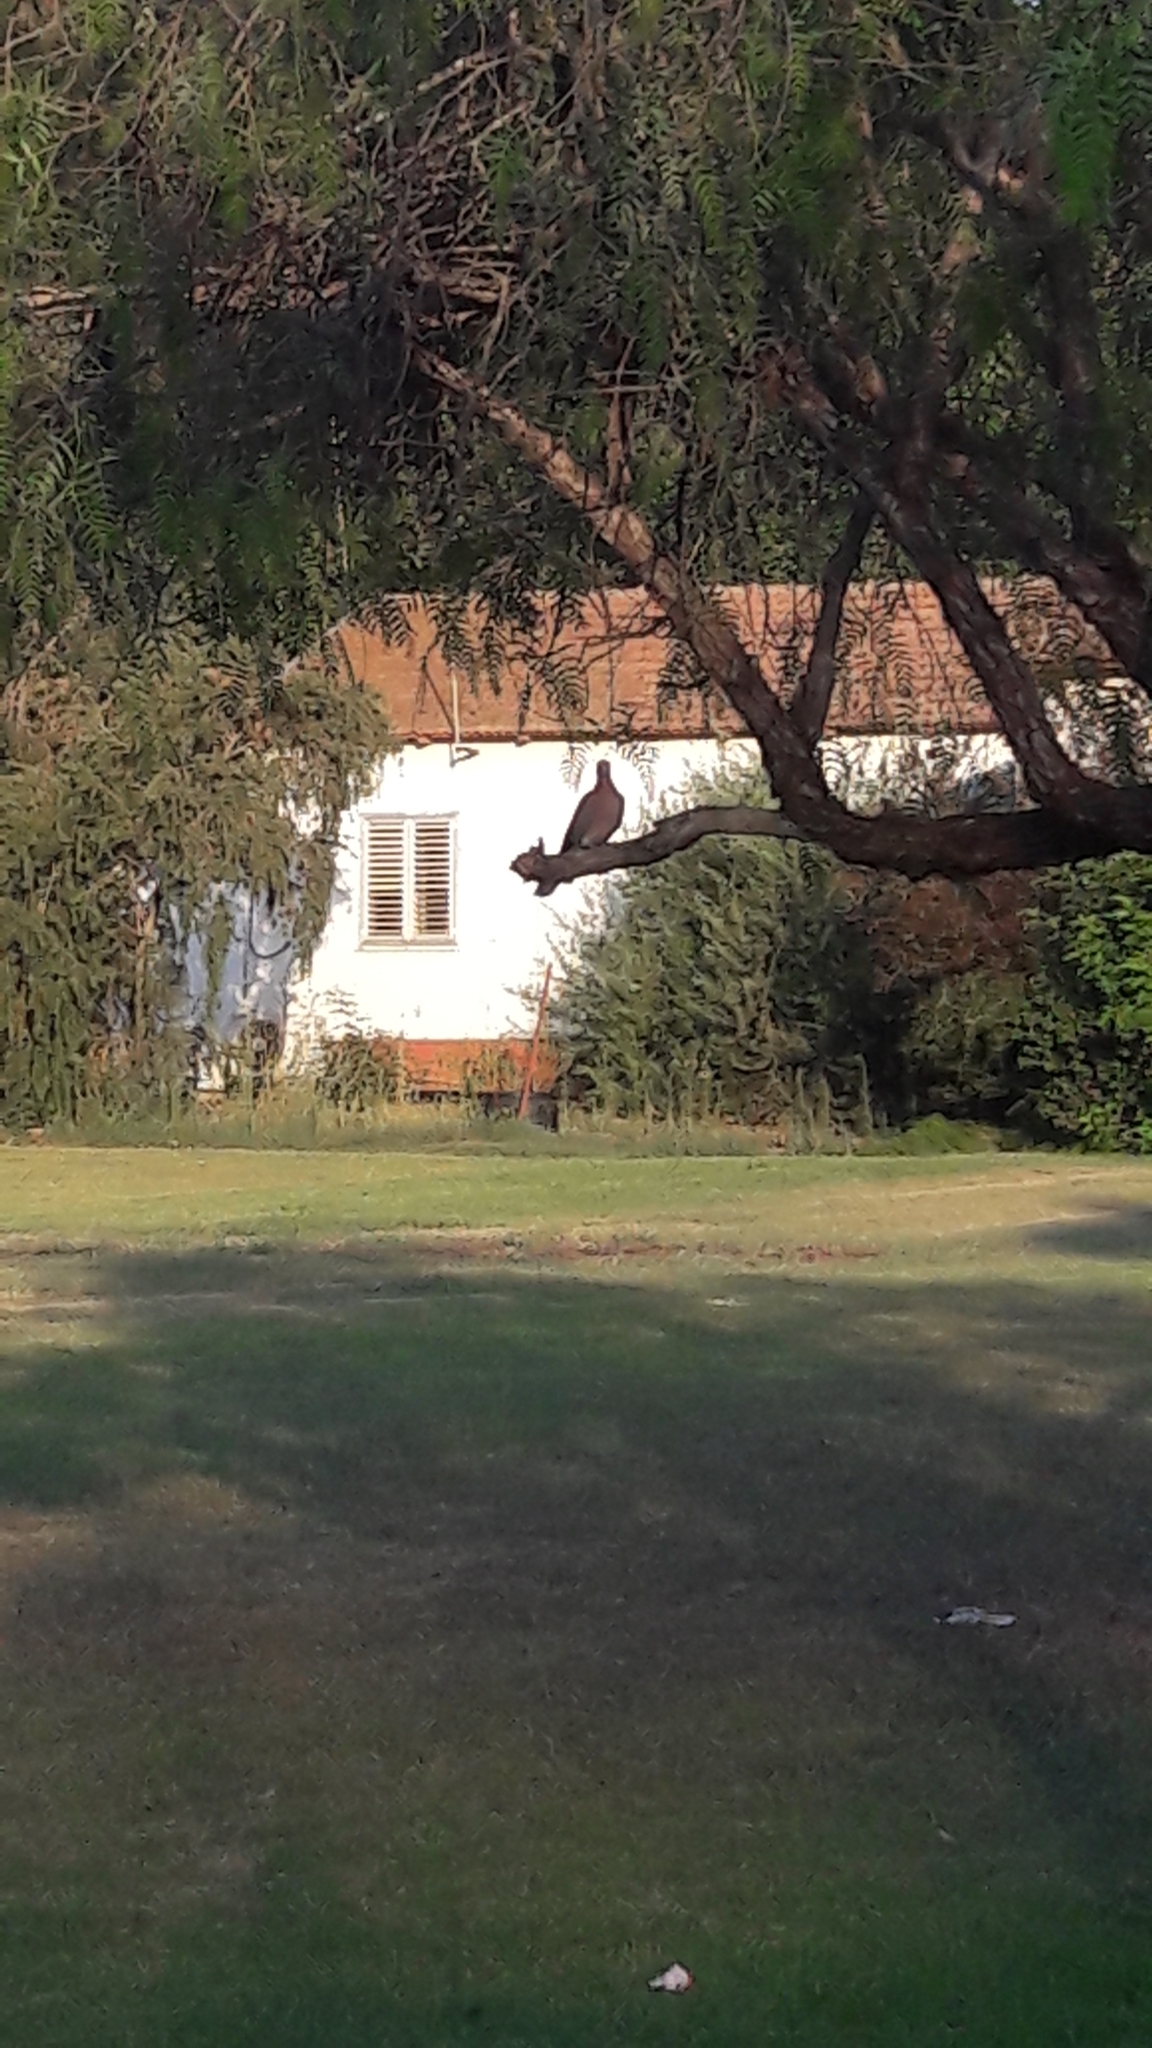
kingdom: Animalia
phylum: Chordata
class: Aves
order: Columbiformes
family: Columbidae
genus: Spilopelia
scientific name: Spilopelia senegalensis
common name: Laughing dove
